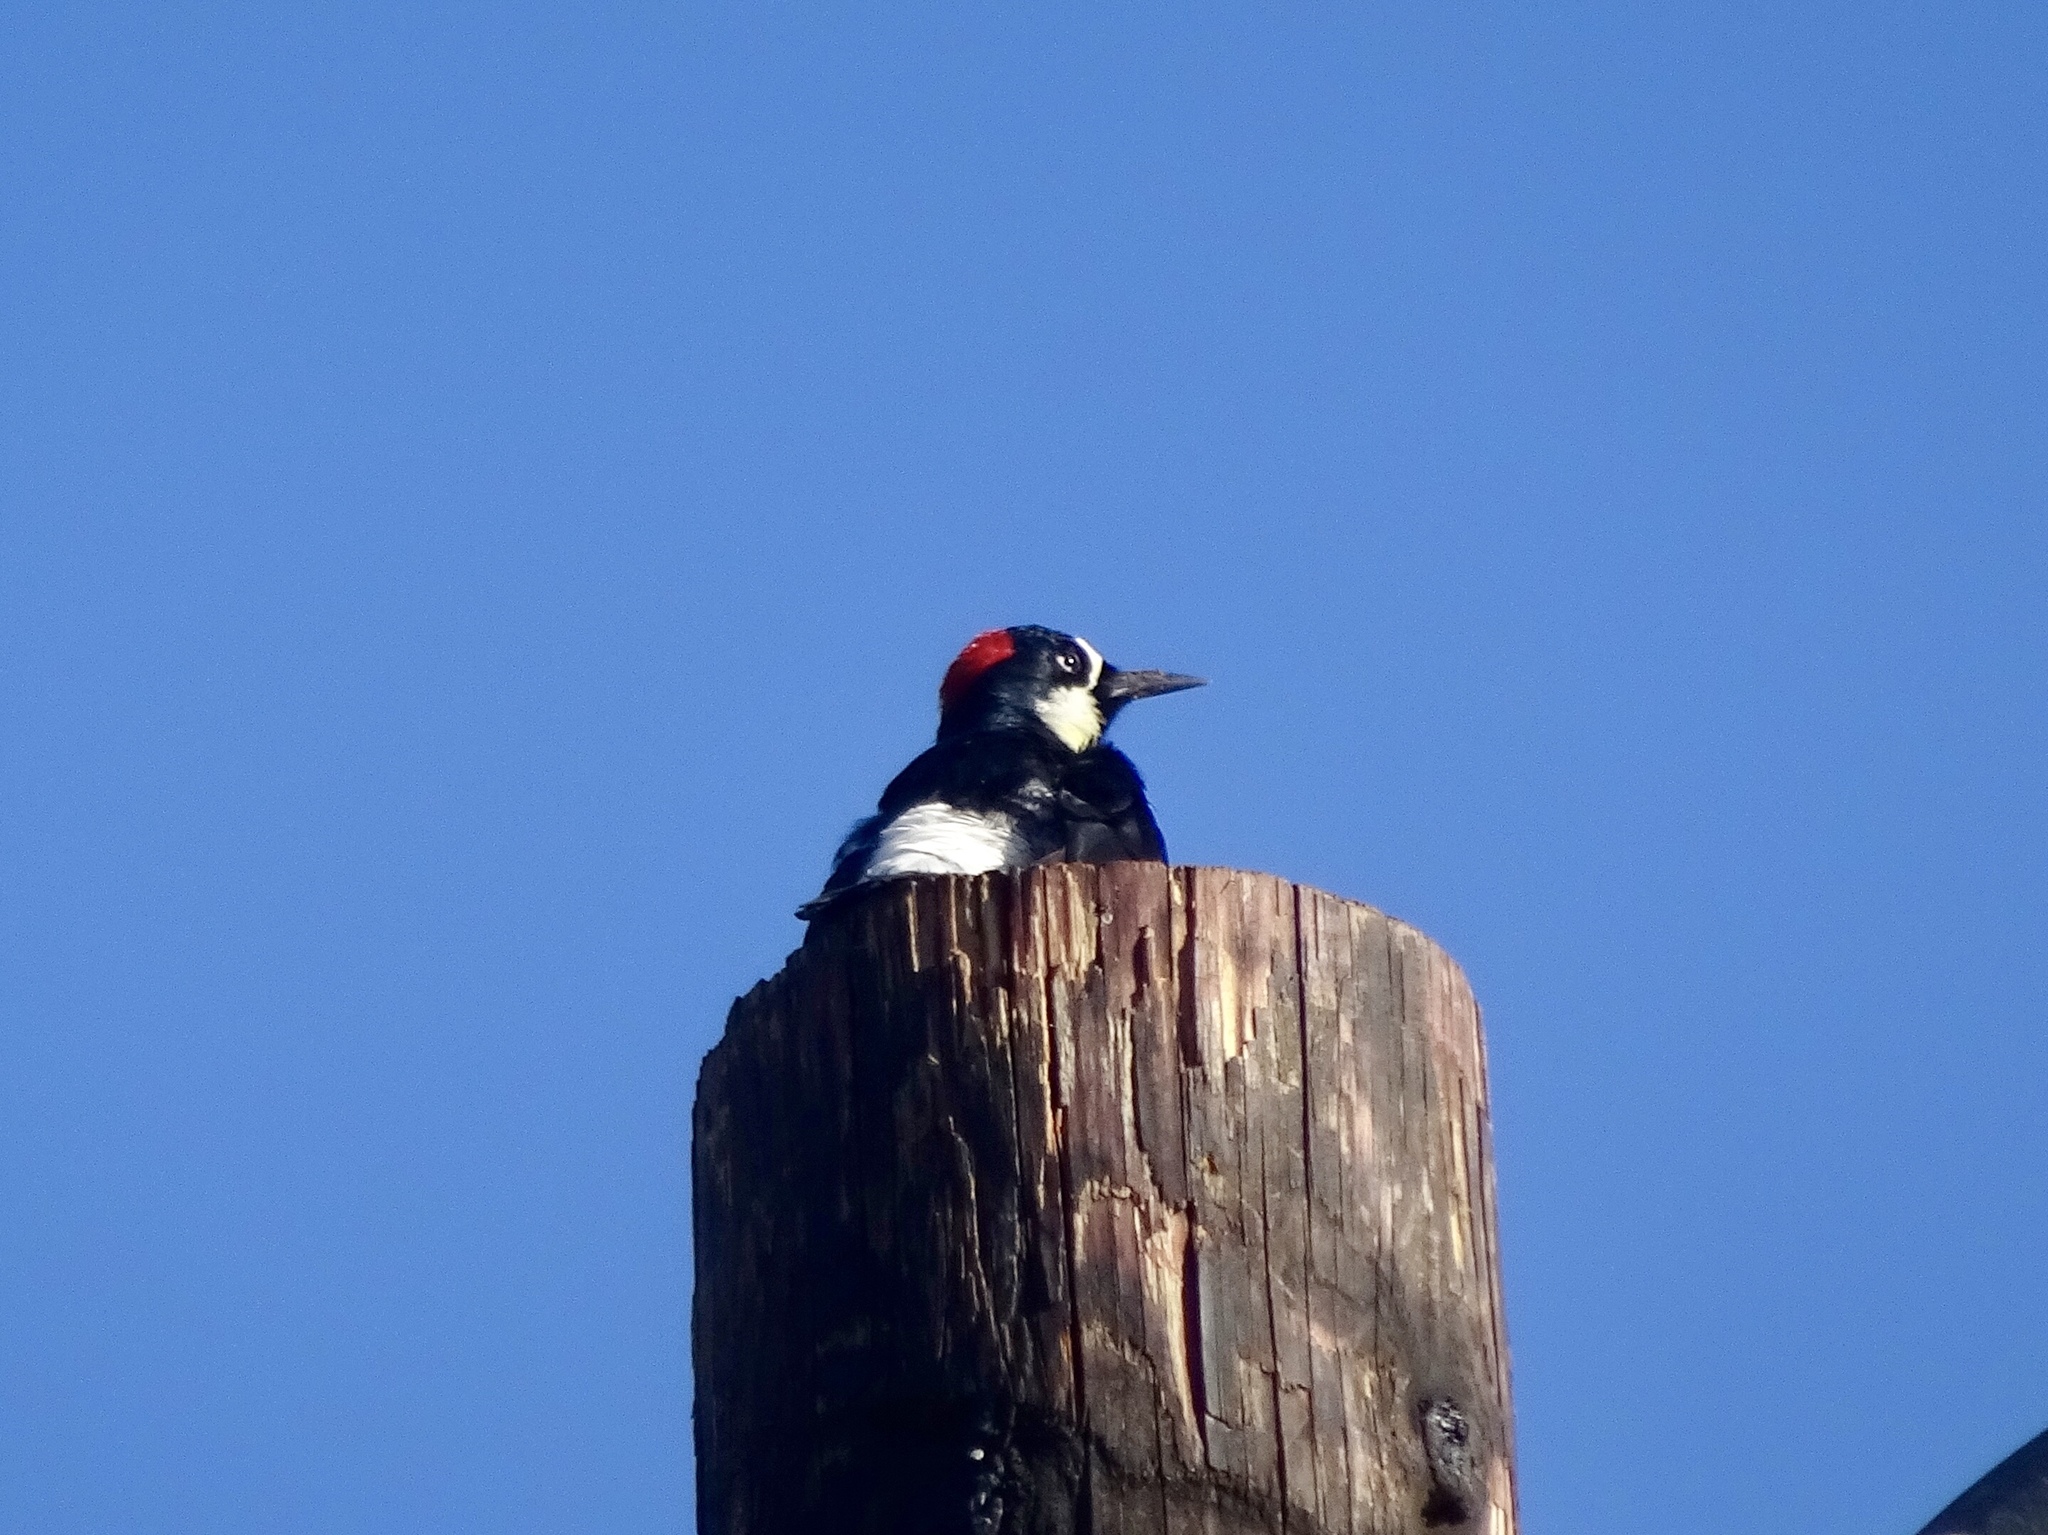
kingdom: Animalia
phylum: Chordata
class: Aves
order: Piciformes
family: Picidae
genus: Melanerpes
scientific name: Melanerpes formicivorus
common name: Acorn woodpecker
